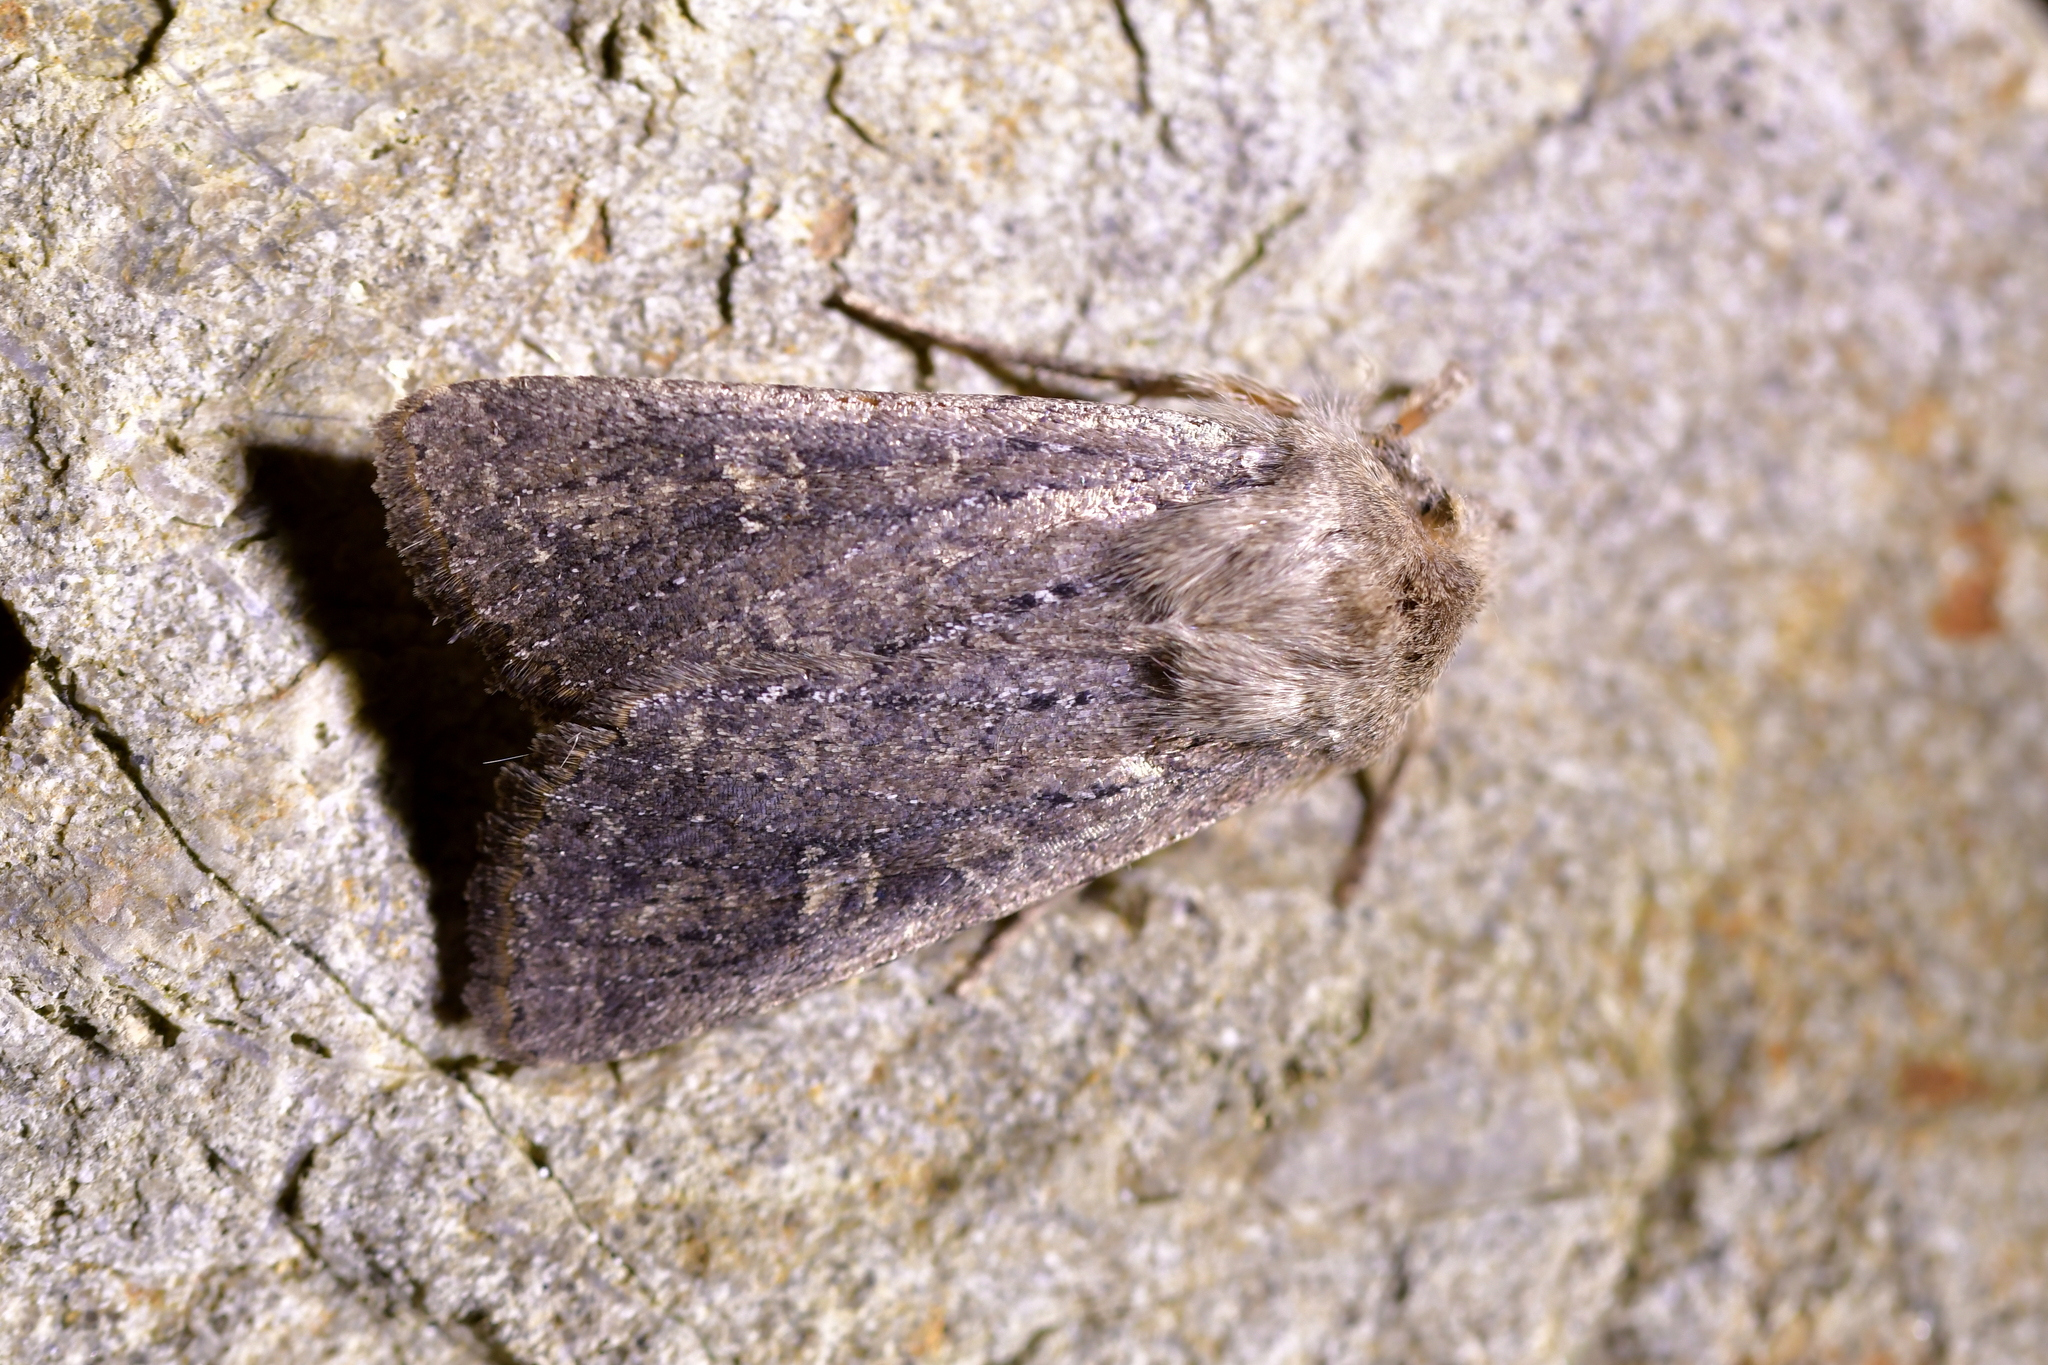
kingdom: Animalia
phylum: Arthropoda
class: Insecta
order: Lepidoptera
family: Noctuidae
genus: Physetica
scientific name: Physetica
